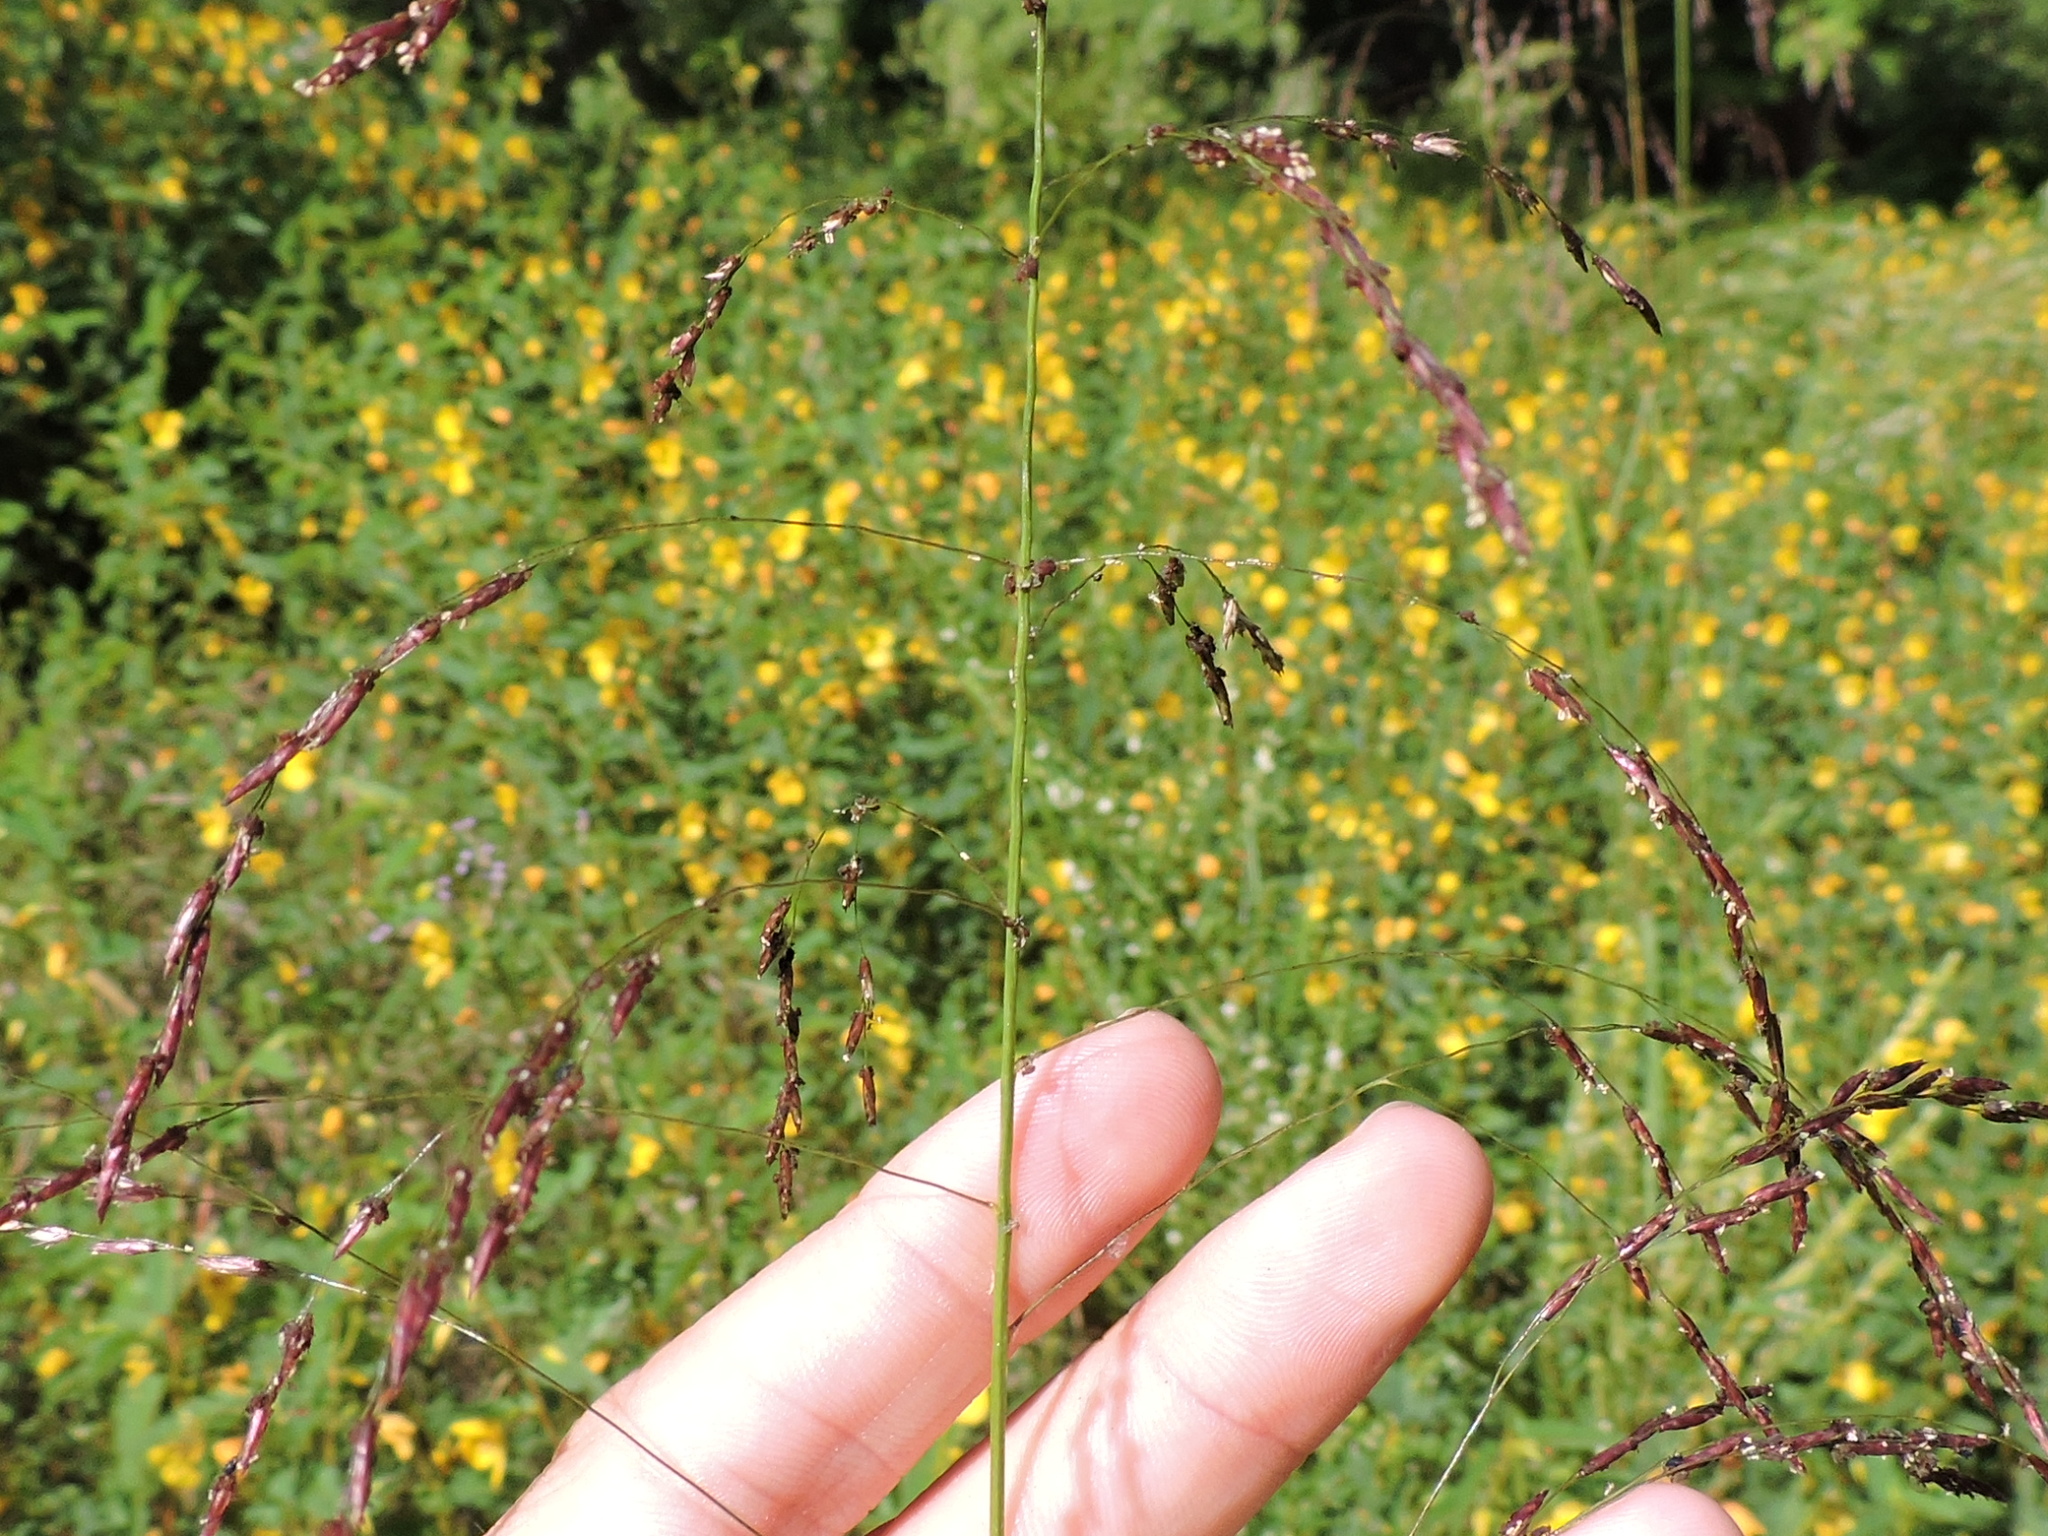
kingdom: Plantae
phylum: Tracheophyta
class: Liliopsida
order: Poales
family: Poaceae
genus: Tridens
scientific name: Tridens flavus
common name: Purpletop
